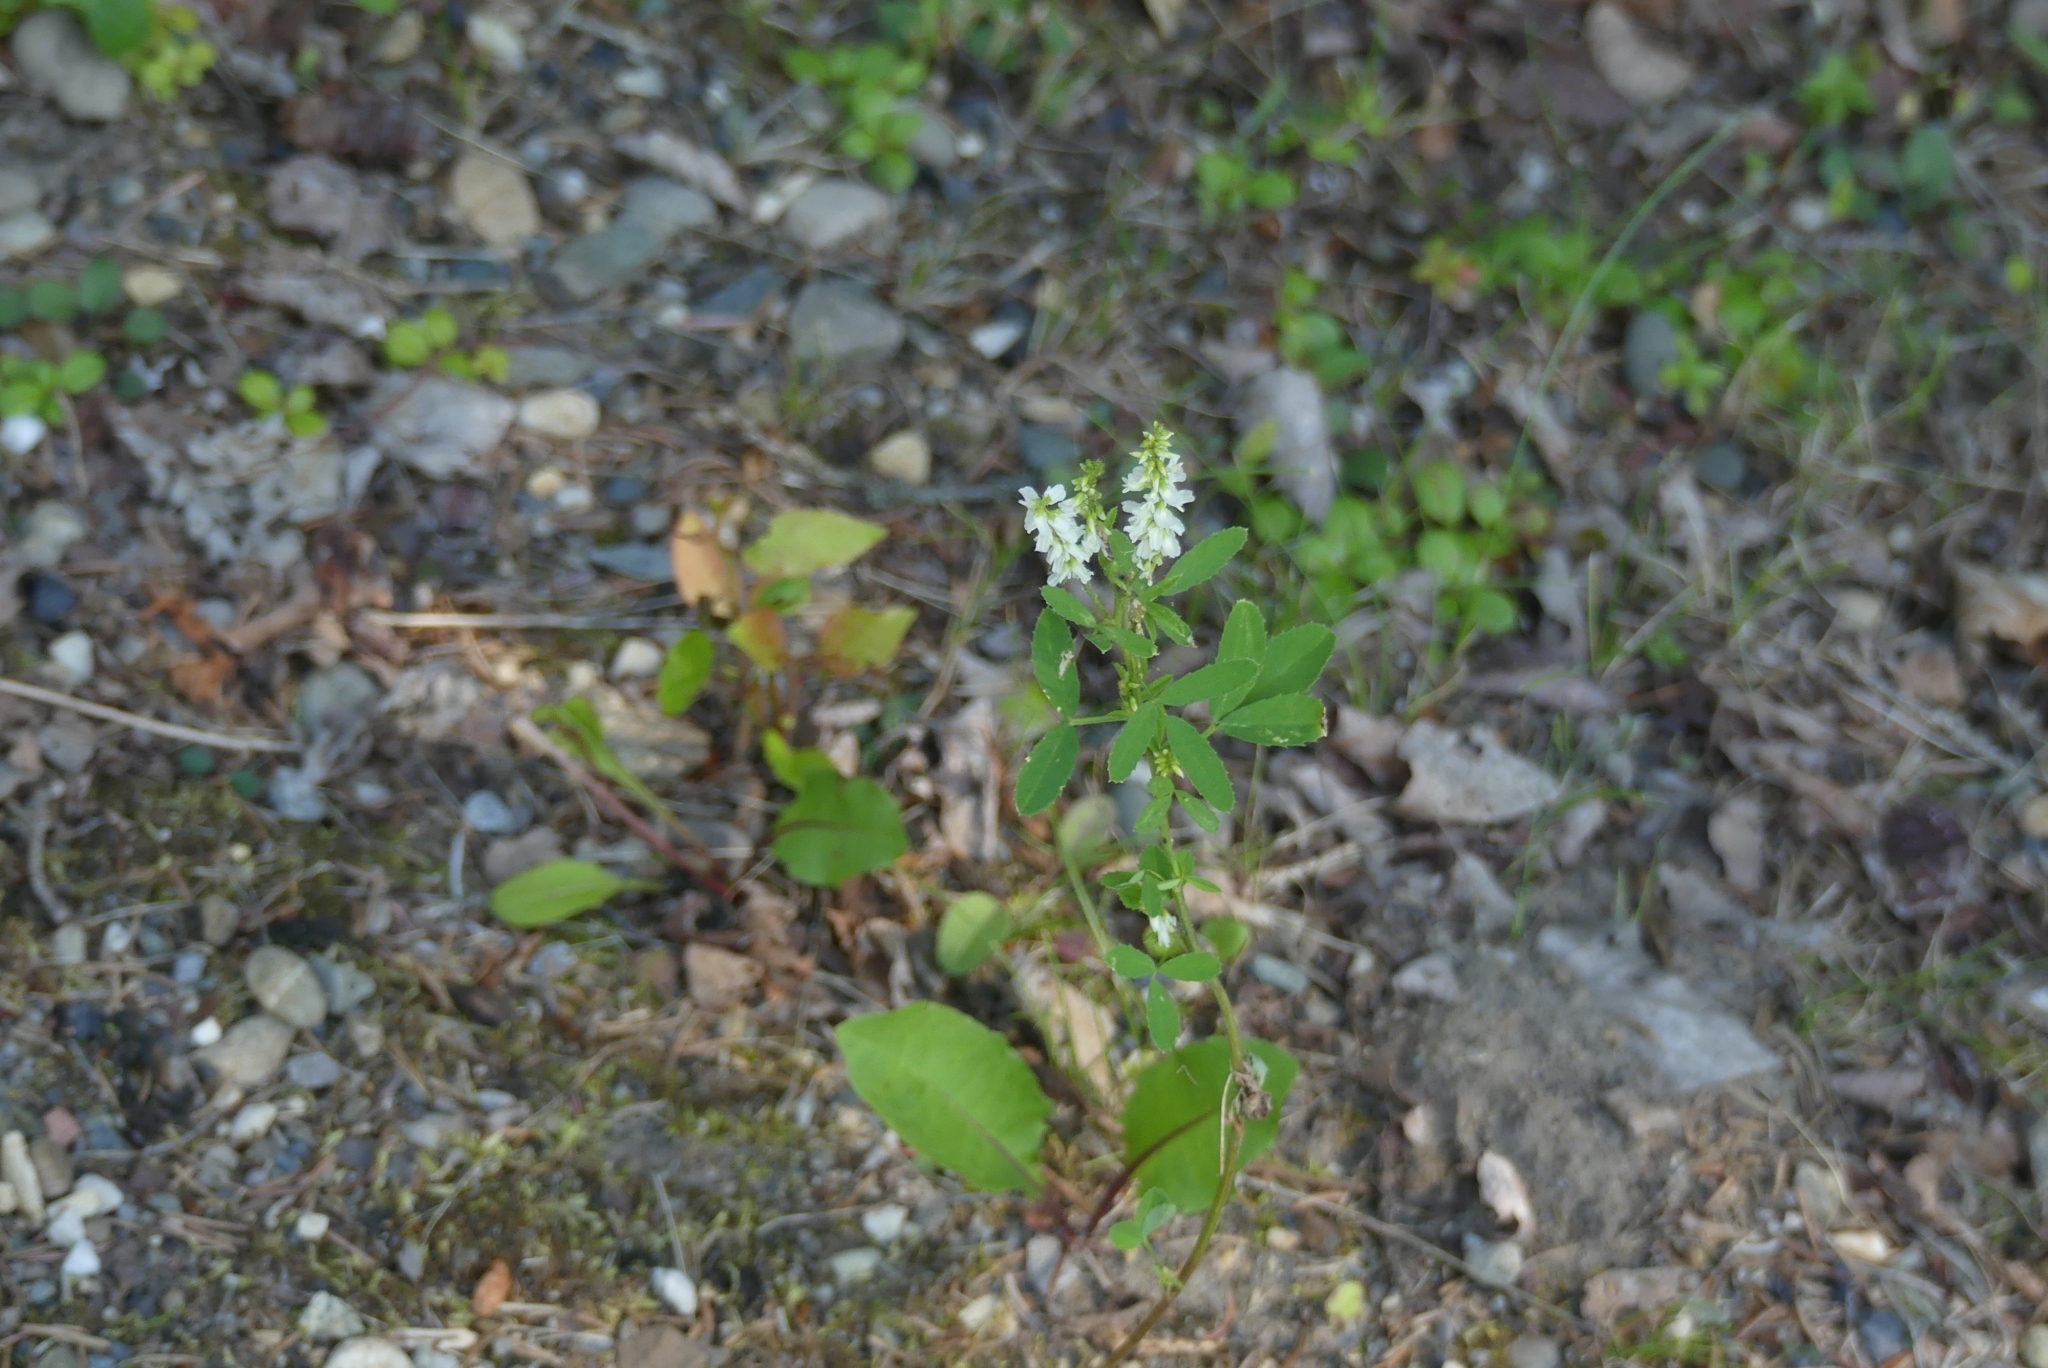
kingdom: Plantae
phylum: Tracheophyta
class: Magnoliopsida
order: Fabales
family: Fabaceae
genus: Melilotus
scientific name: Melilotus albus
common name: White melilot
